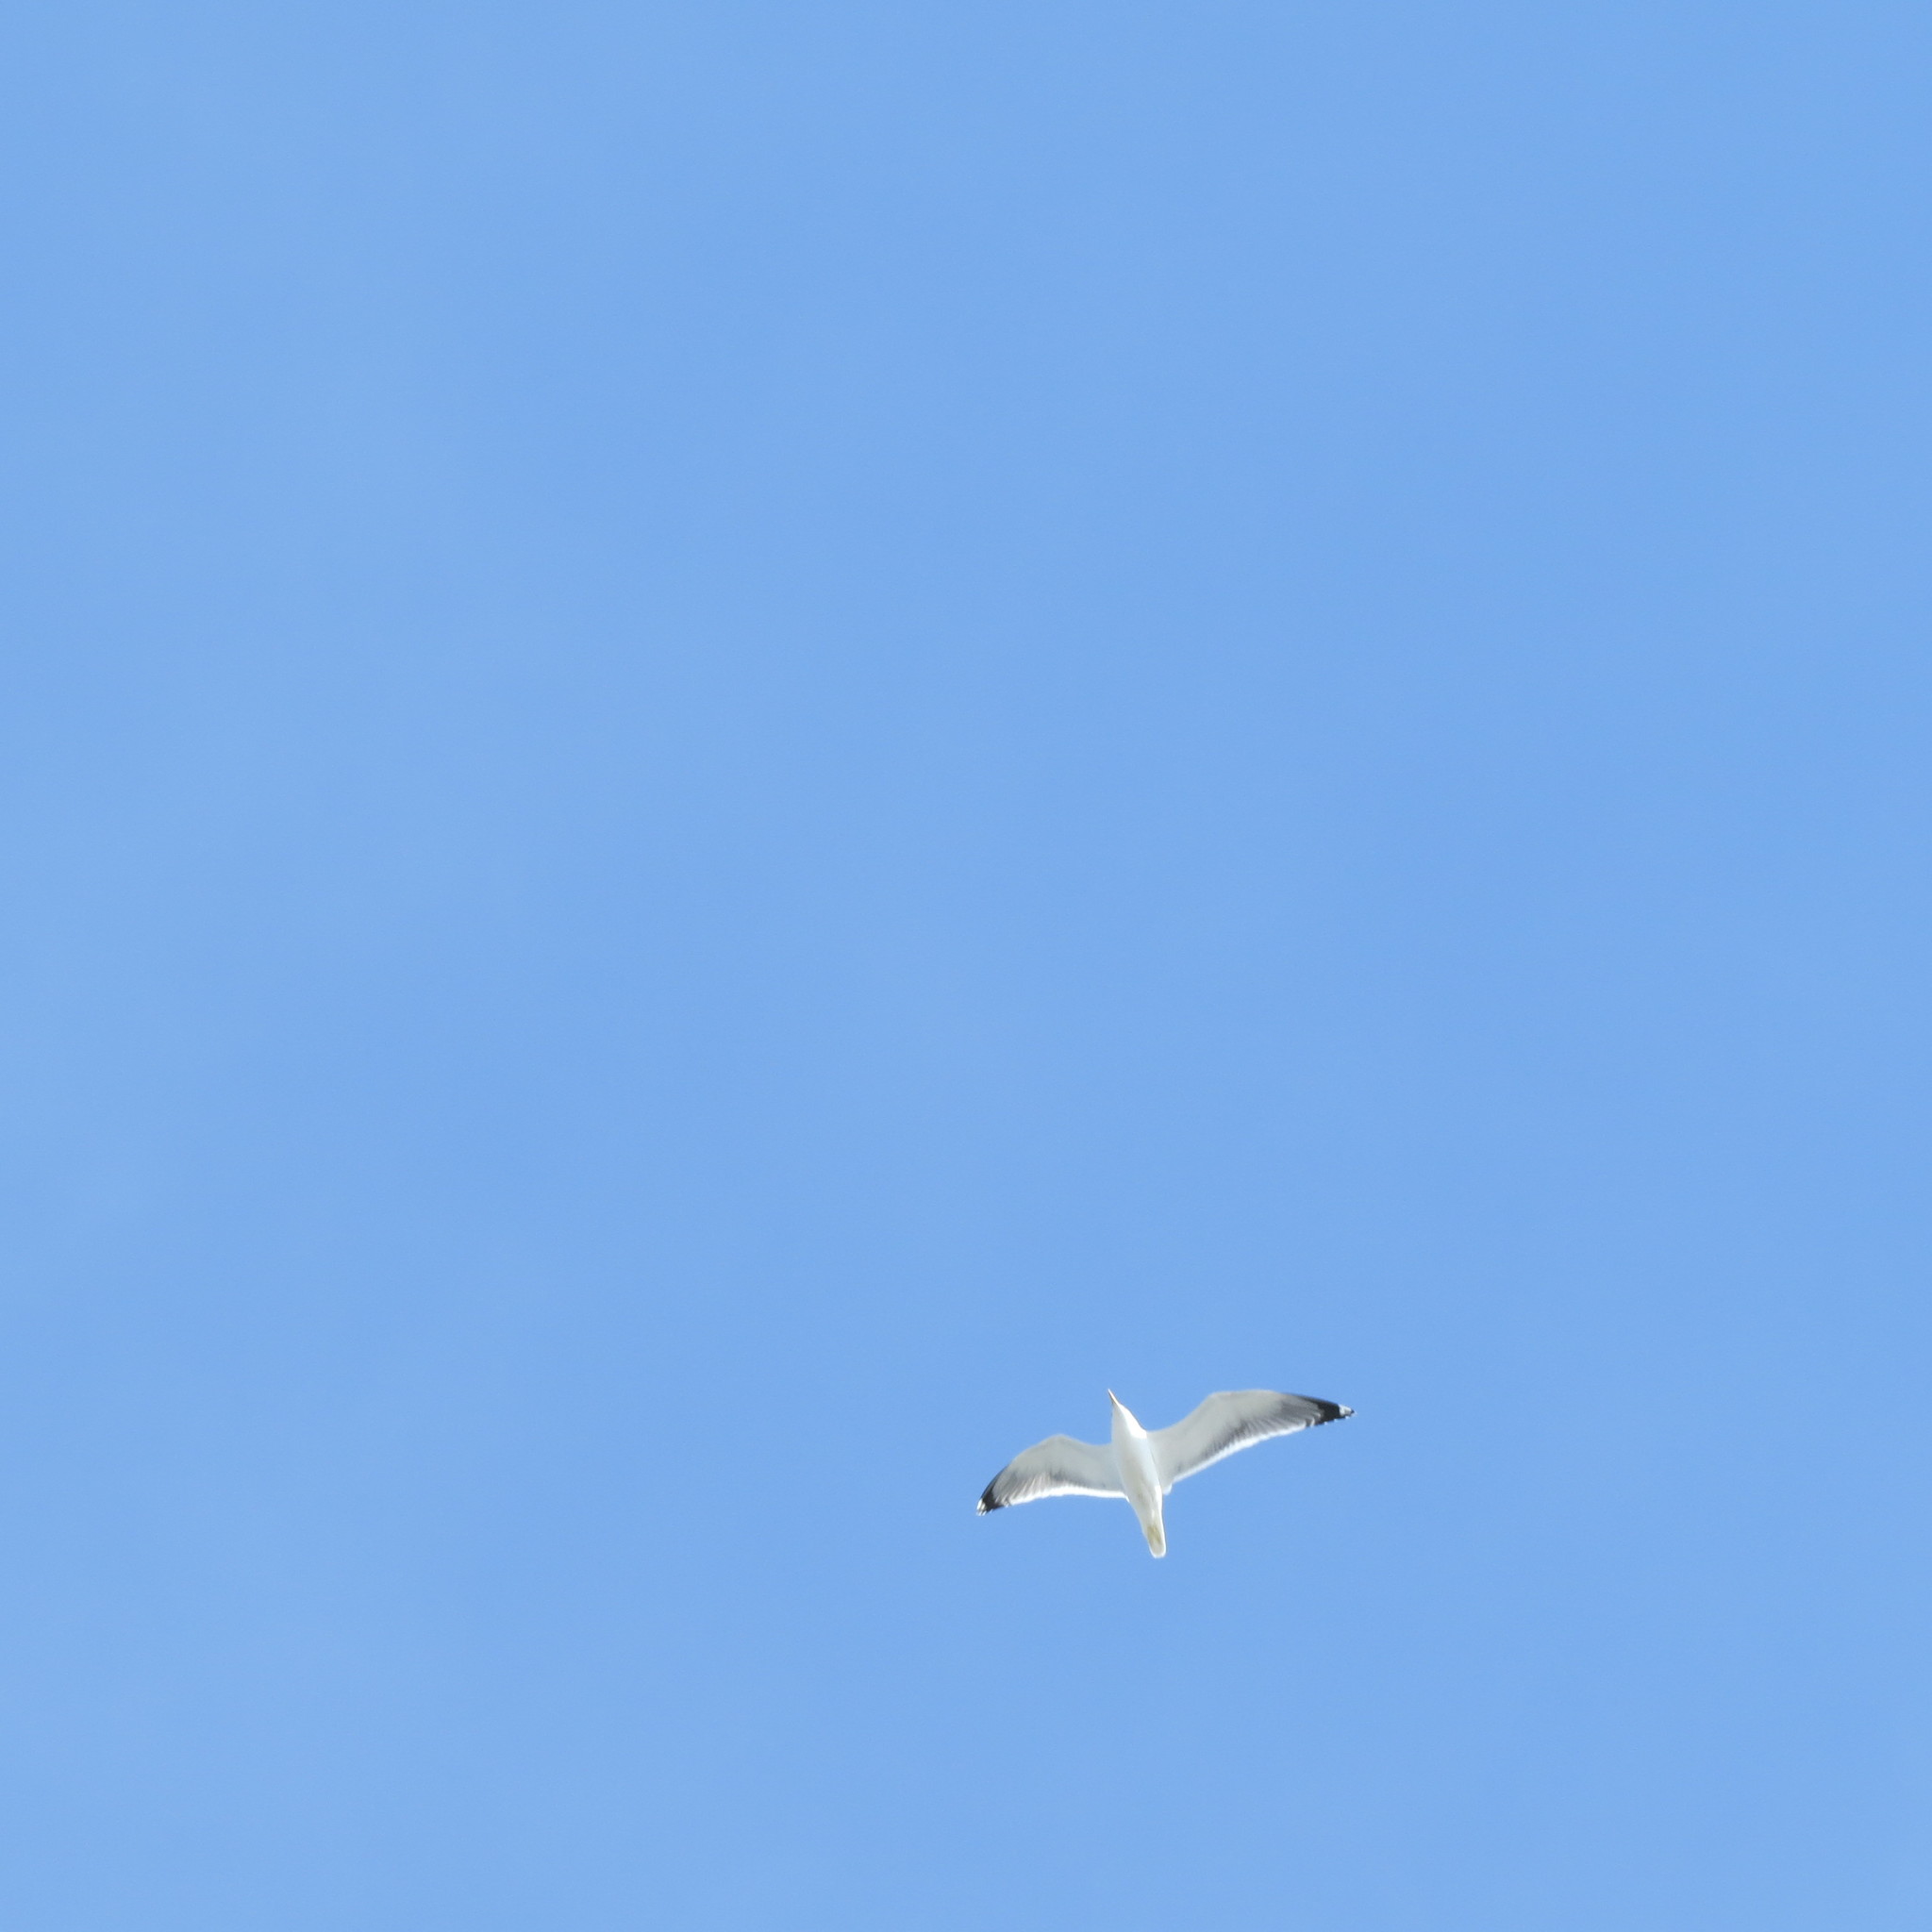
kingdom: Animalia
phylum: Chordata
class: Aves
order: Charadriiformes
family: Laridae
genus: Larus
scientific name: Larus canus
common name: Mew gull
